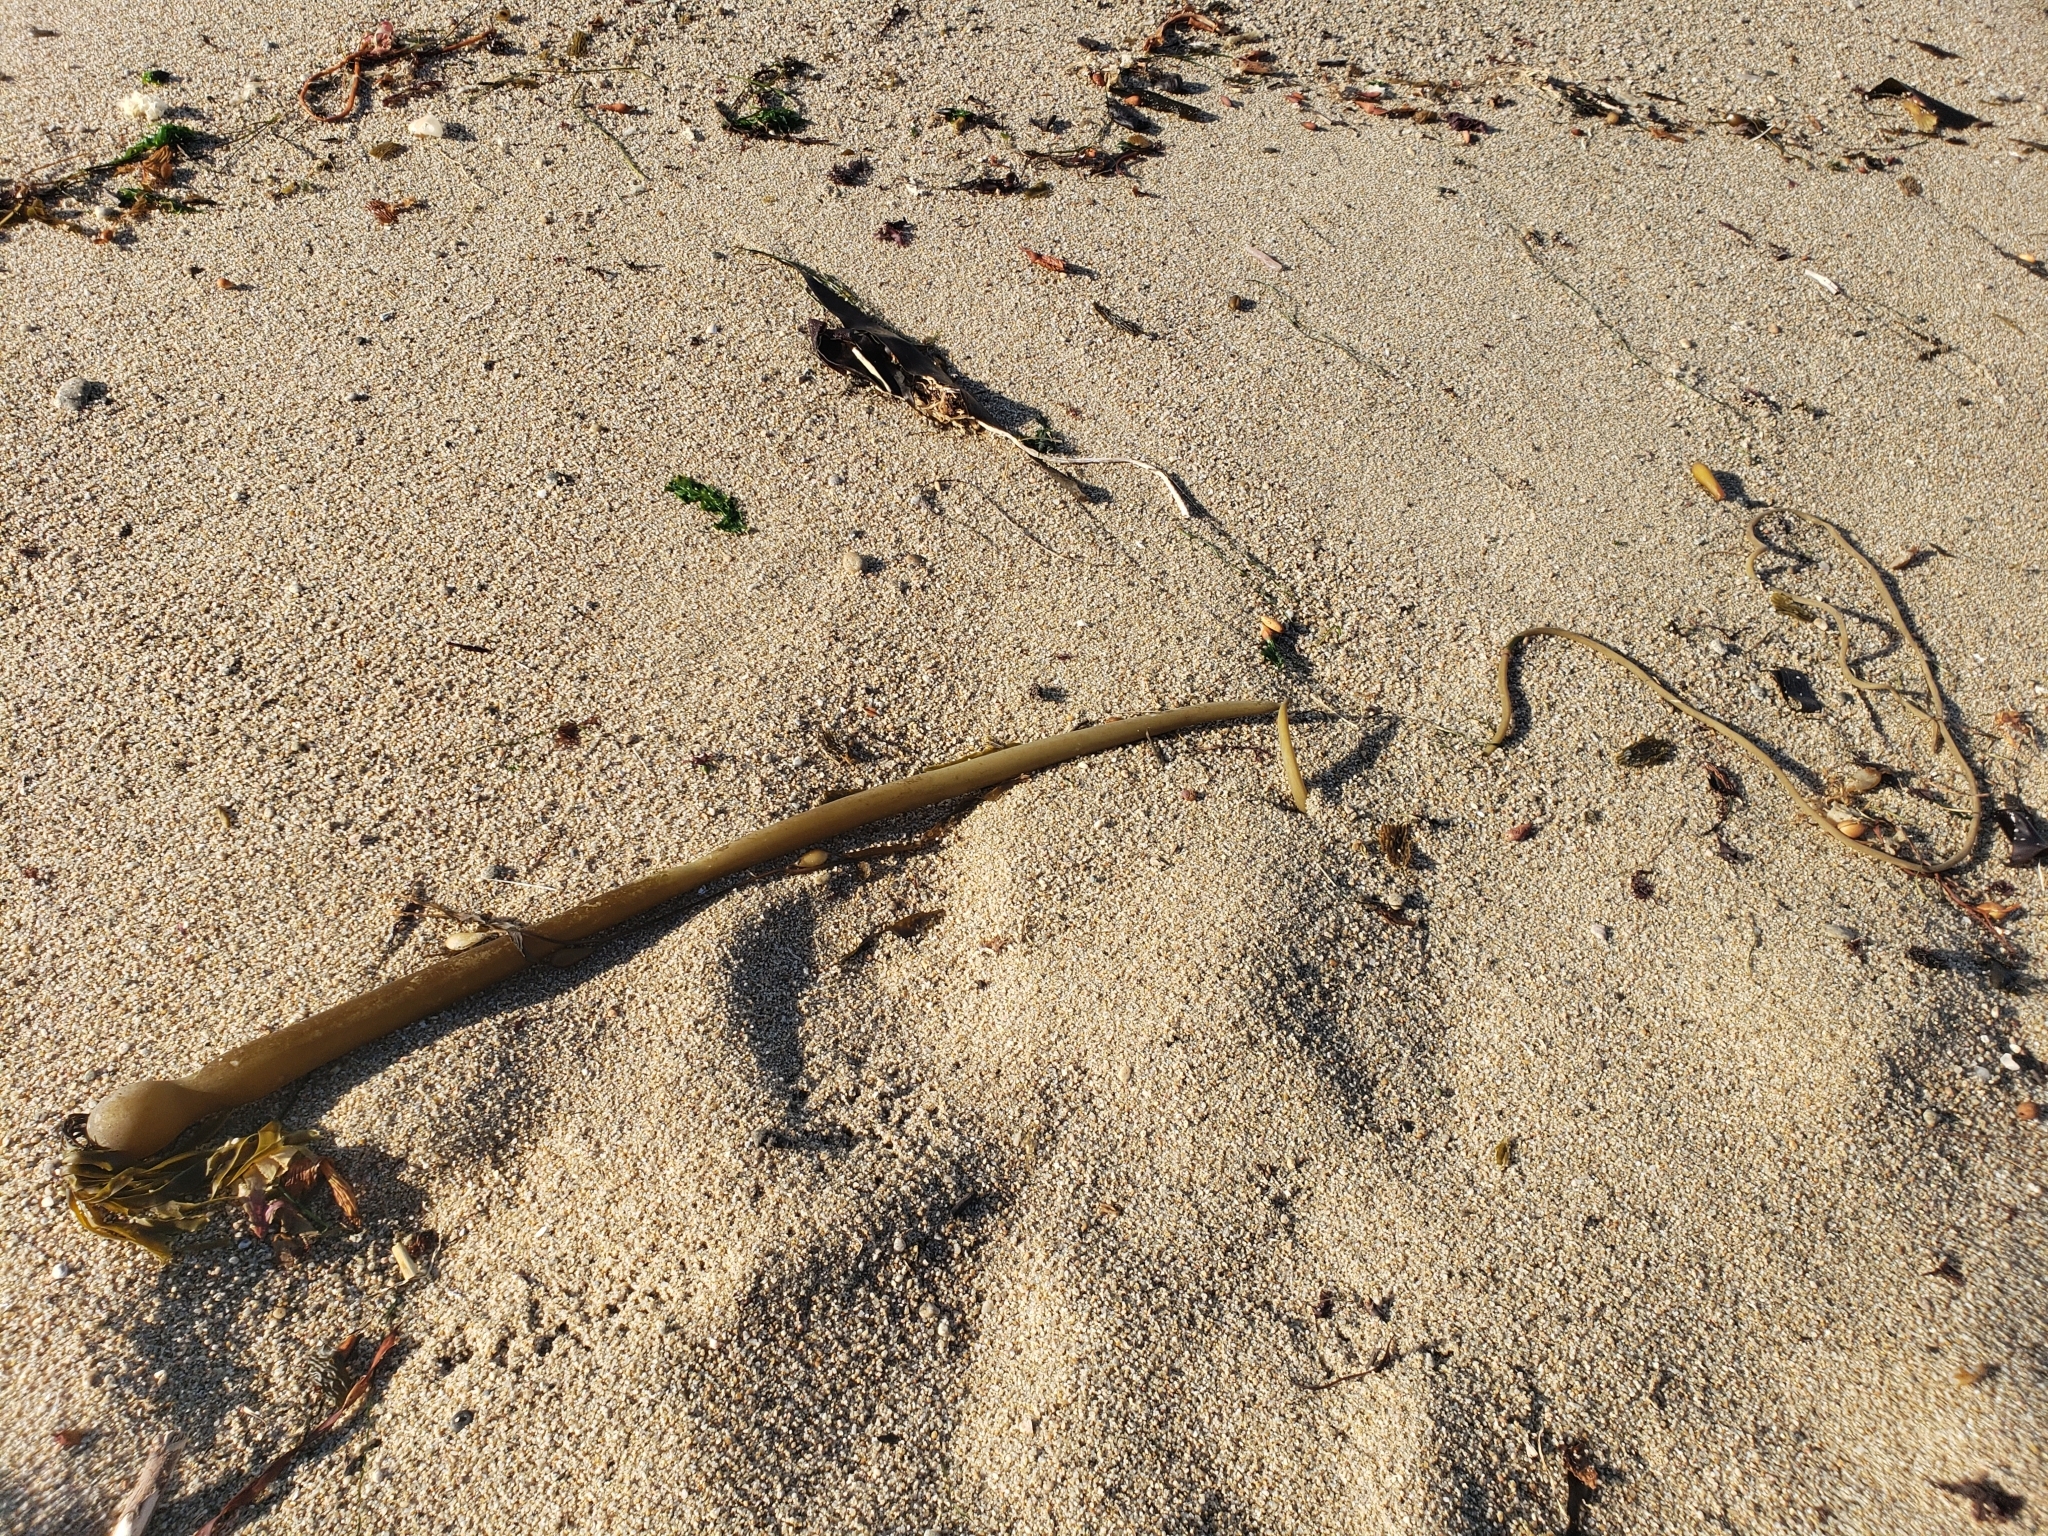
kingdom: Chromista
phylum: Ochrophyta
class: Phaeophyceae
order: Laminariales
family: Laminariaceae
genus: Nereocystis
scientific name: Nereocystis luetkeana
